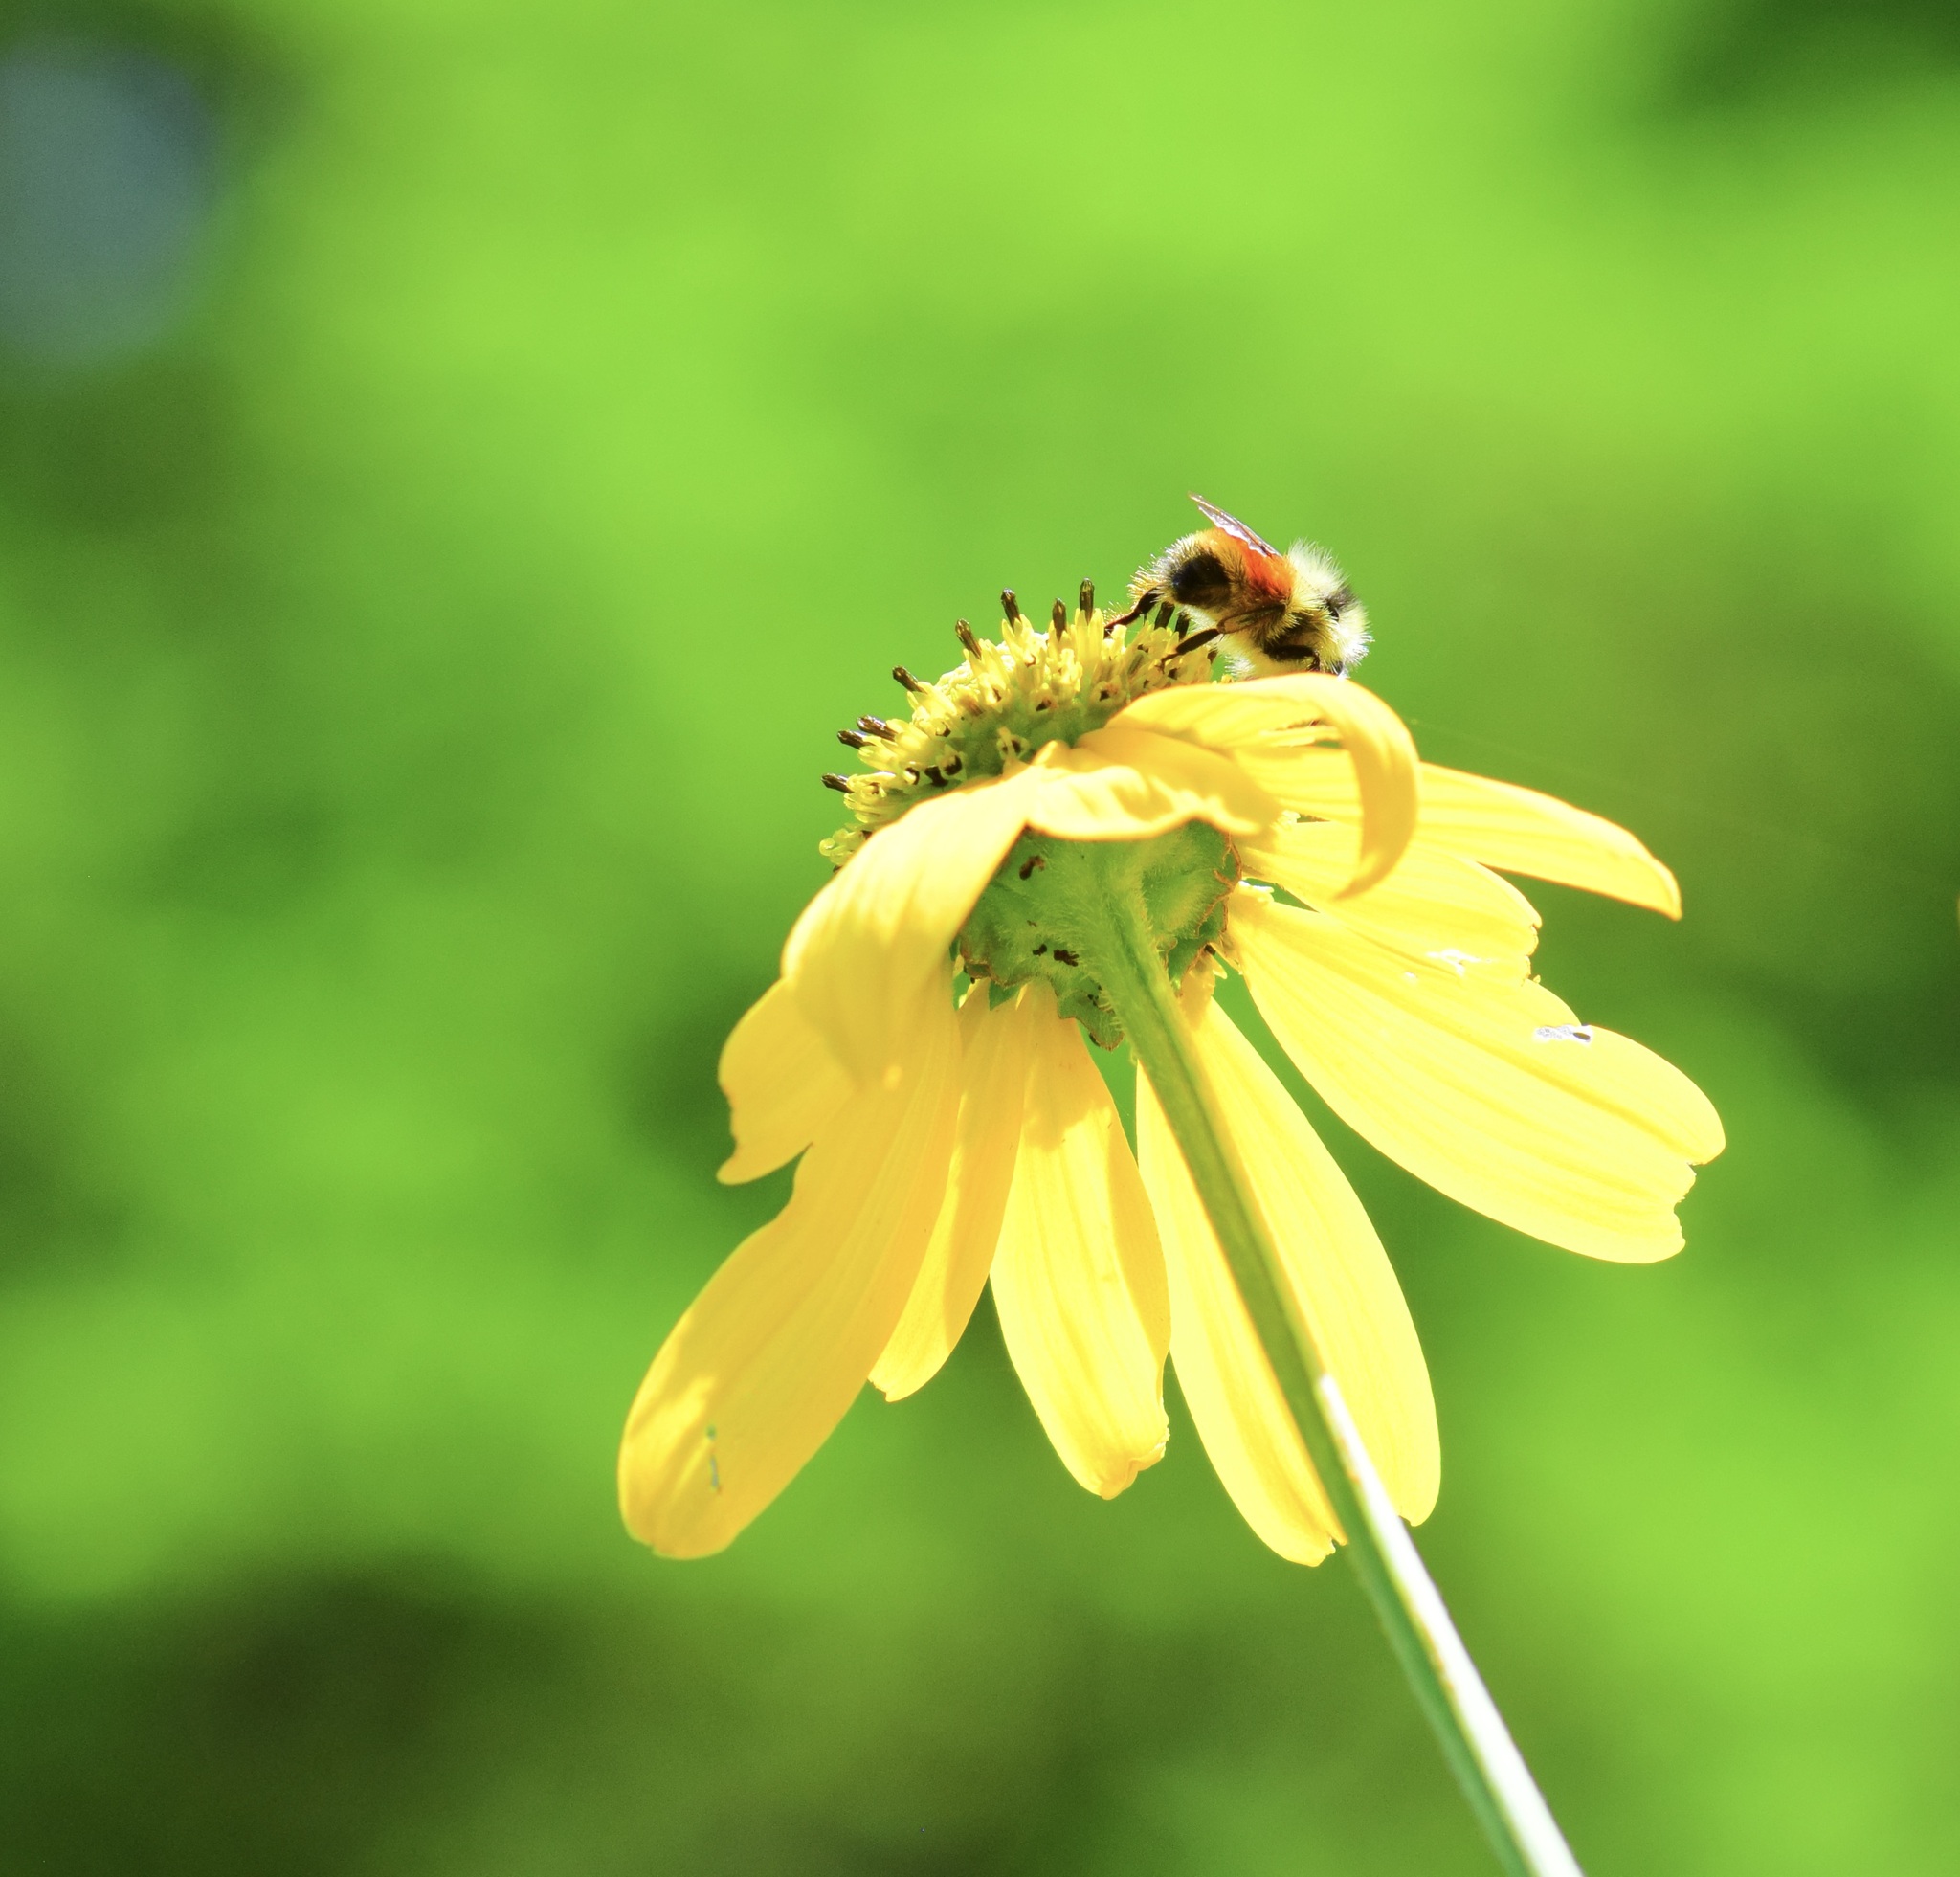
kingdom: Animalia
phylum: Arthropoda
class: Insecta
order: Hymenoptera
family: Apidae
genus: Bombus
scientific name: Bombus ternarius
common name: Tri-colored bumble bee
